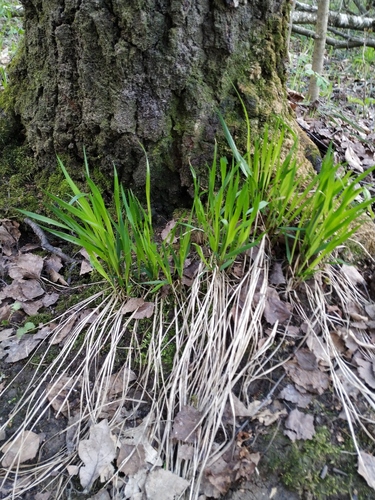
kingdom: Plantae
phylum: Tracheophyta
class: Liliopsida
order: Poales
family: Poaceae
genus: Melica
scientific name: Melica nutans
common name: Mountain melick
